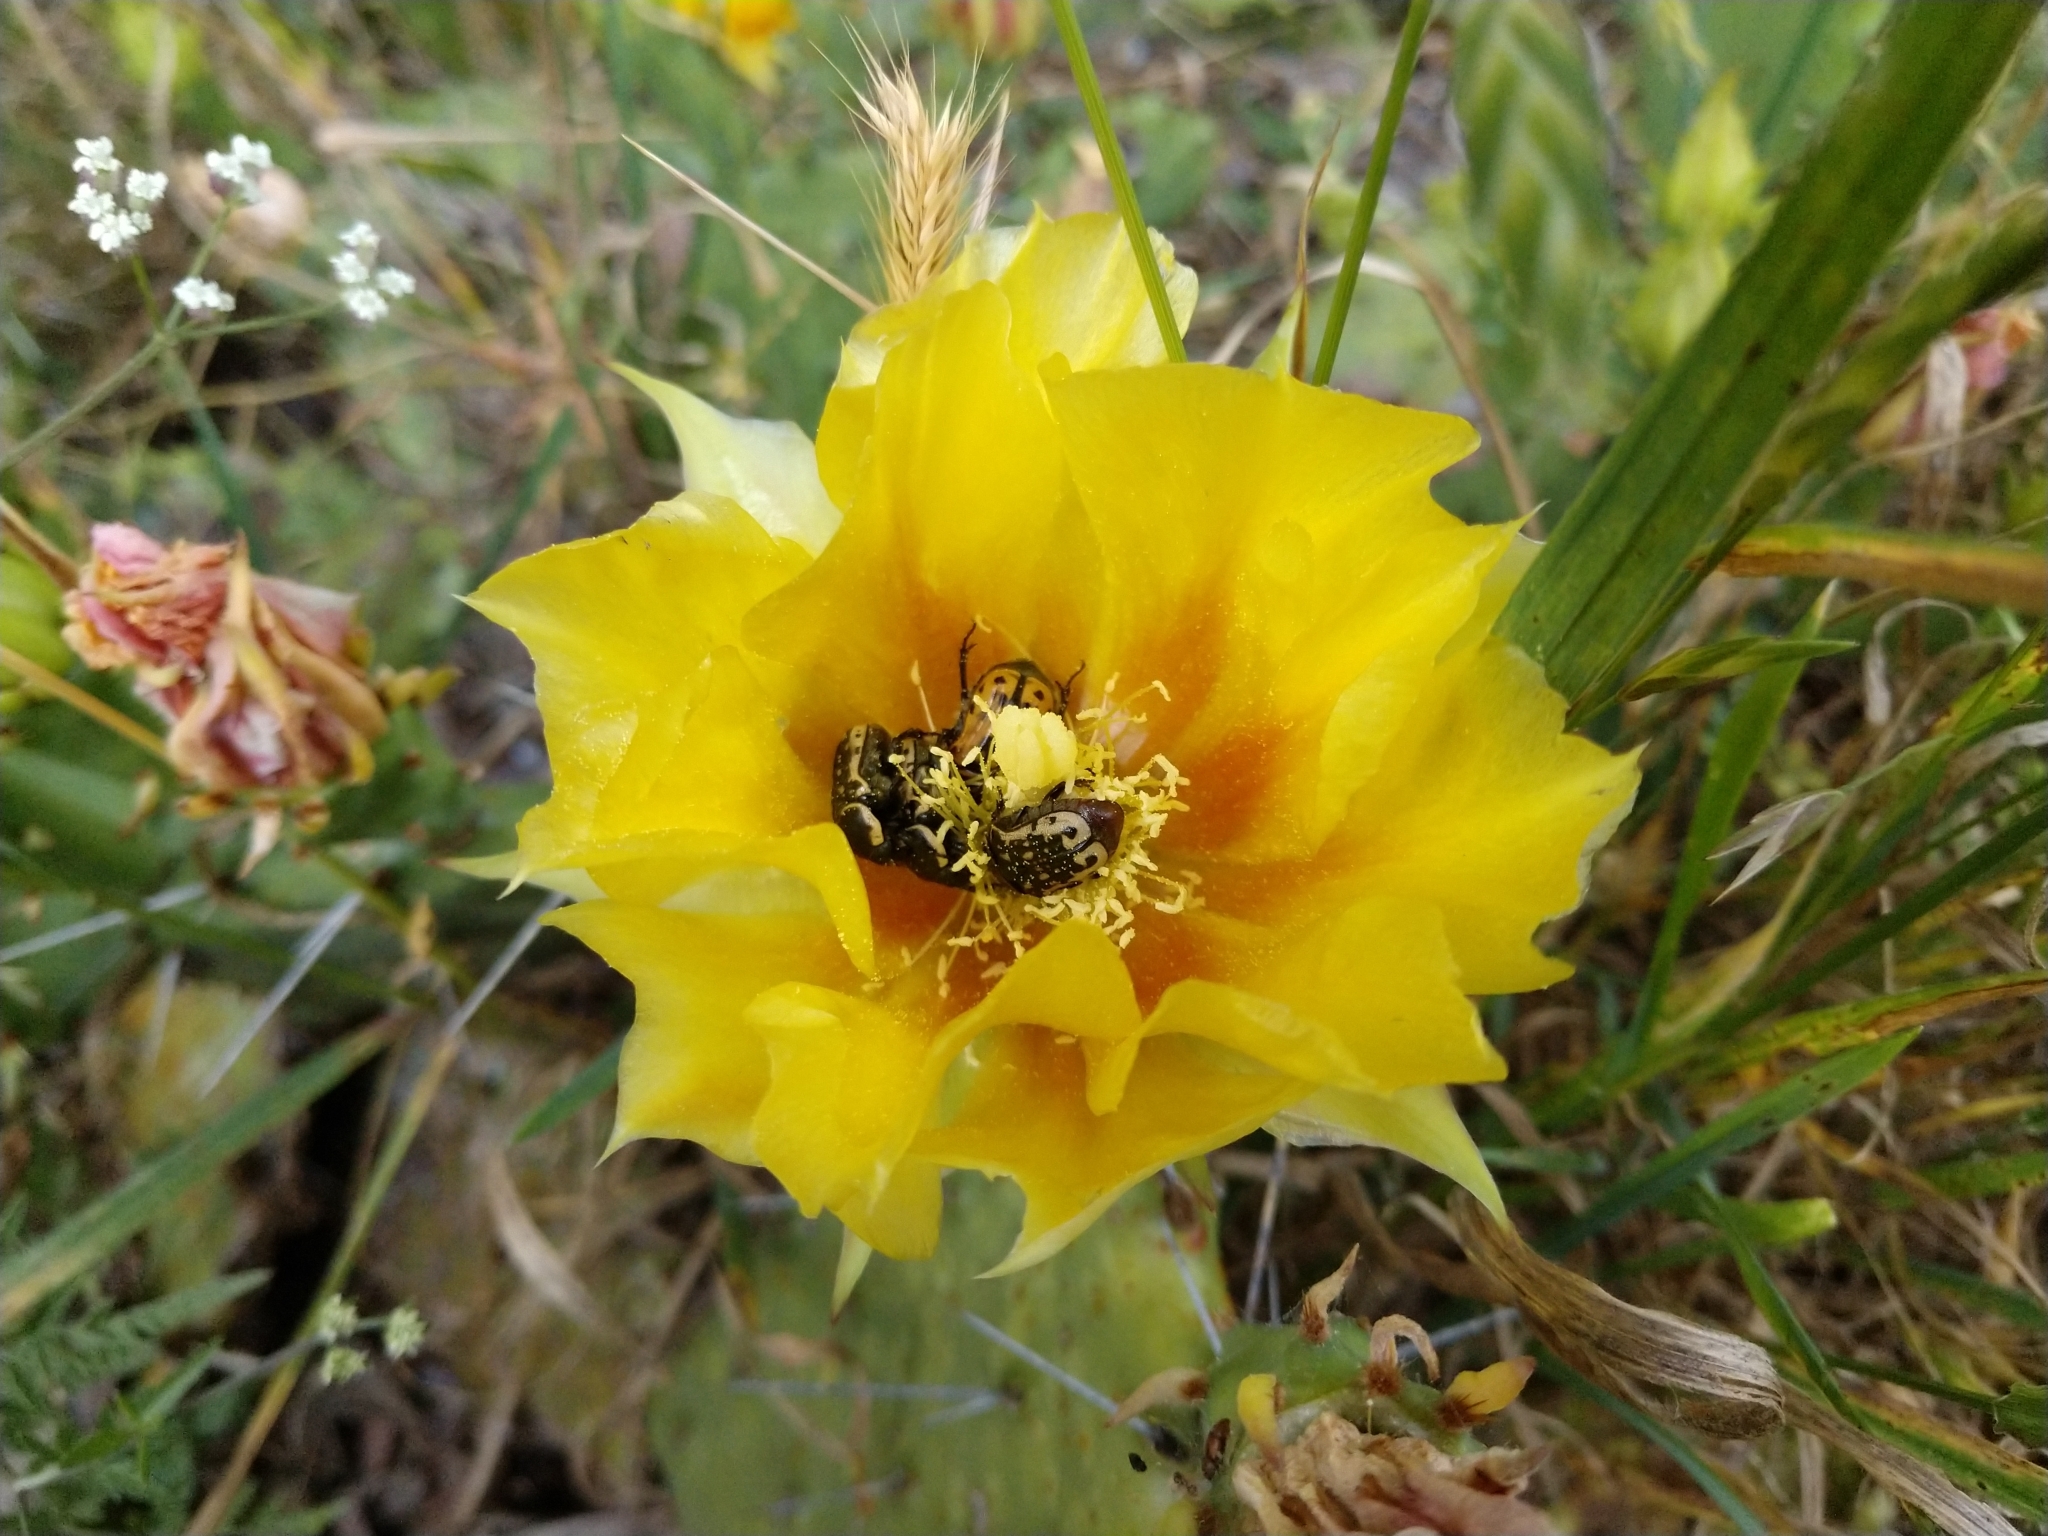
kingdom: Animalia
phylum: Arthropoda
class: Insecta
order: Coleoptera
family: Scarabaeidae
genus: Euphoria
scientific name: Euphoria kernii
